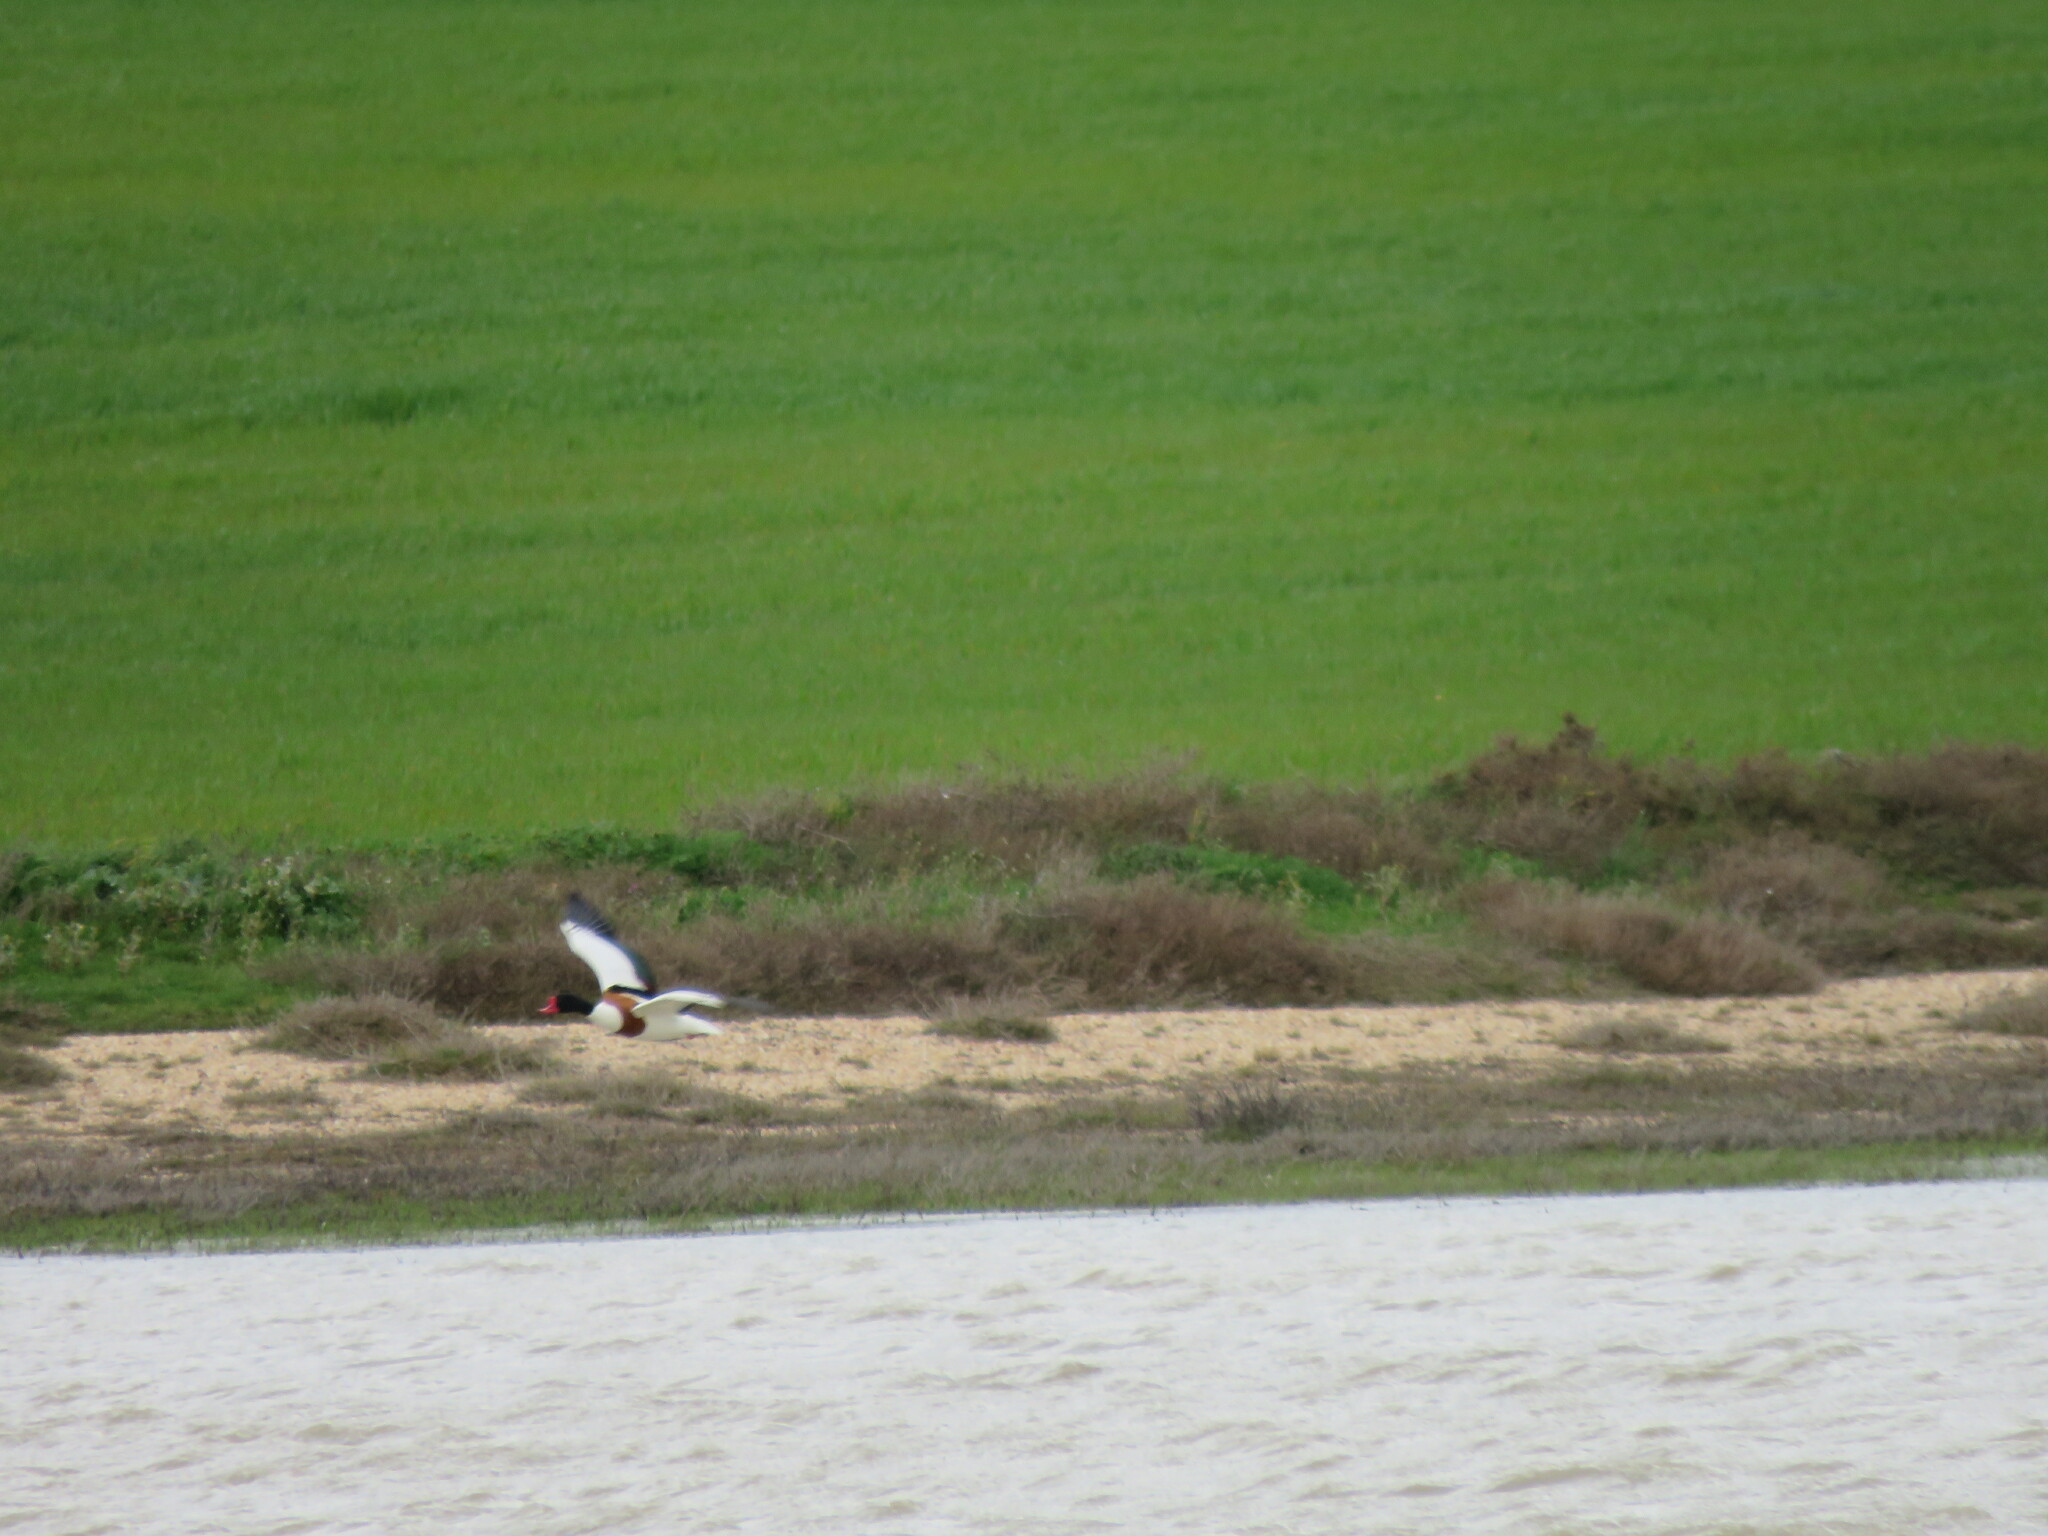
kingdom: Animalia
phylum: Chordata
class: Aves
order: Anseriformes
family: Anatidae
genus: Tadorna
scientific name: Tadorna tadorna
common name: Common shelduck
